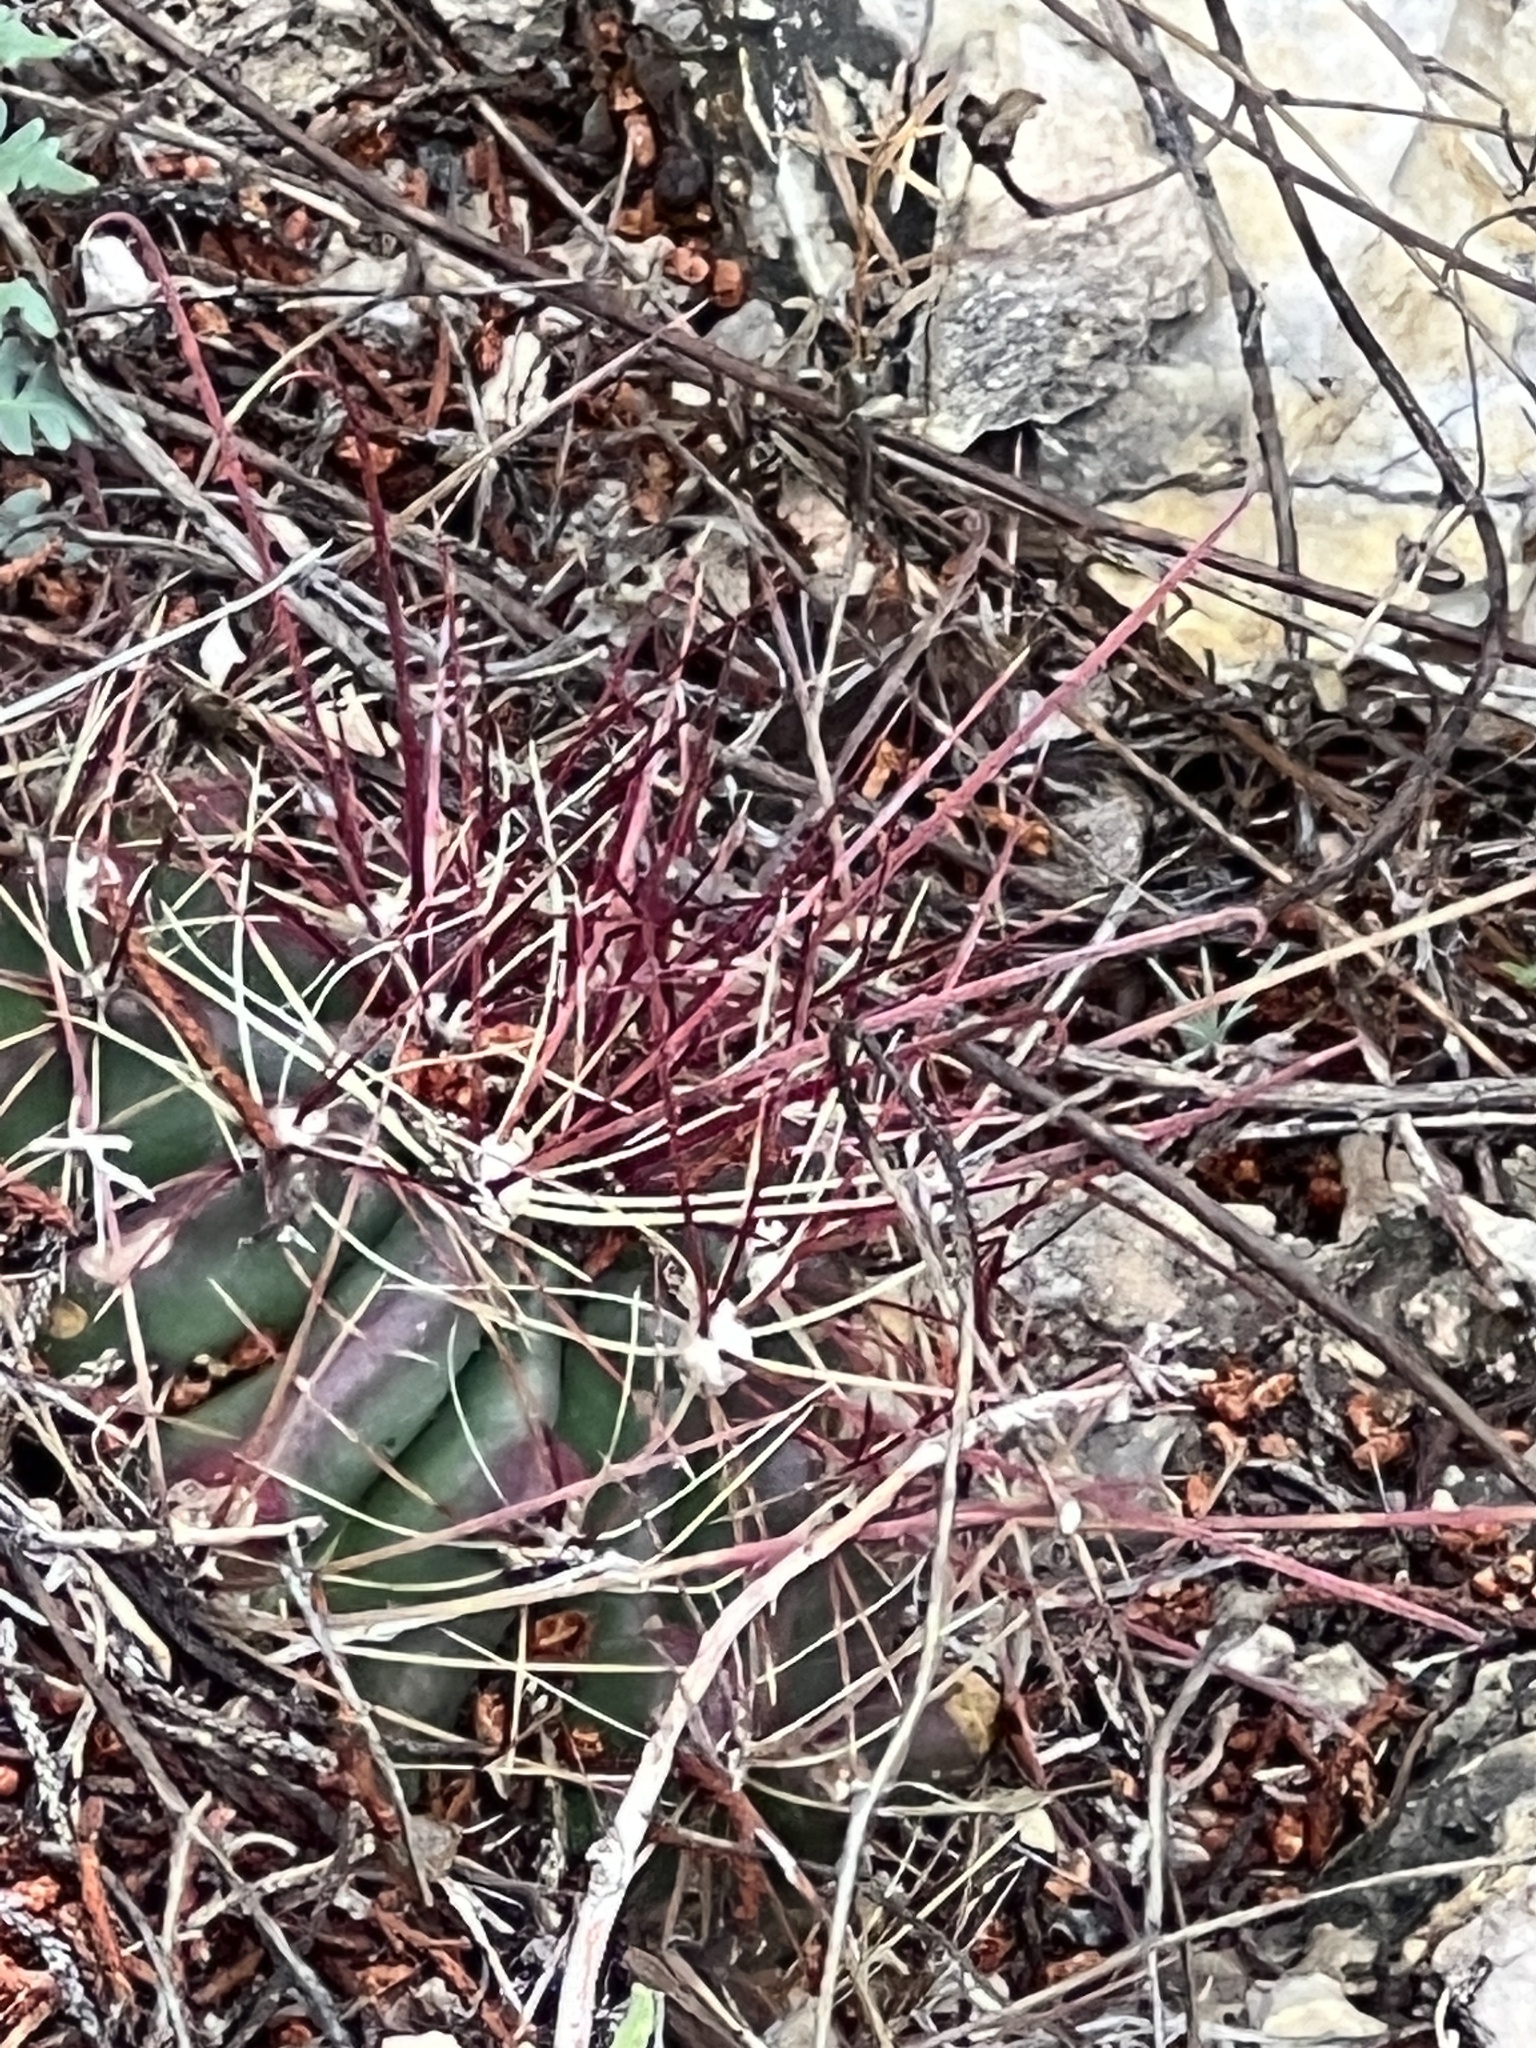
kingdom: Plantae
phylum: Tracheophyta
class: Magnoliopsida
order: Caryophyllales
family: Cactaceae
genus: Bisnaga
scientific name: Bisnaga hamatacantha
